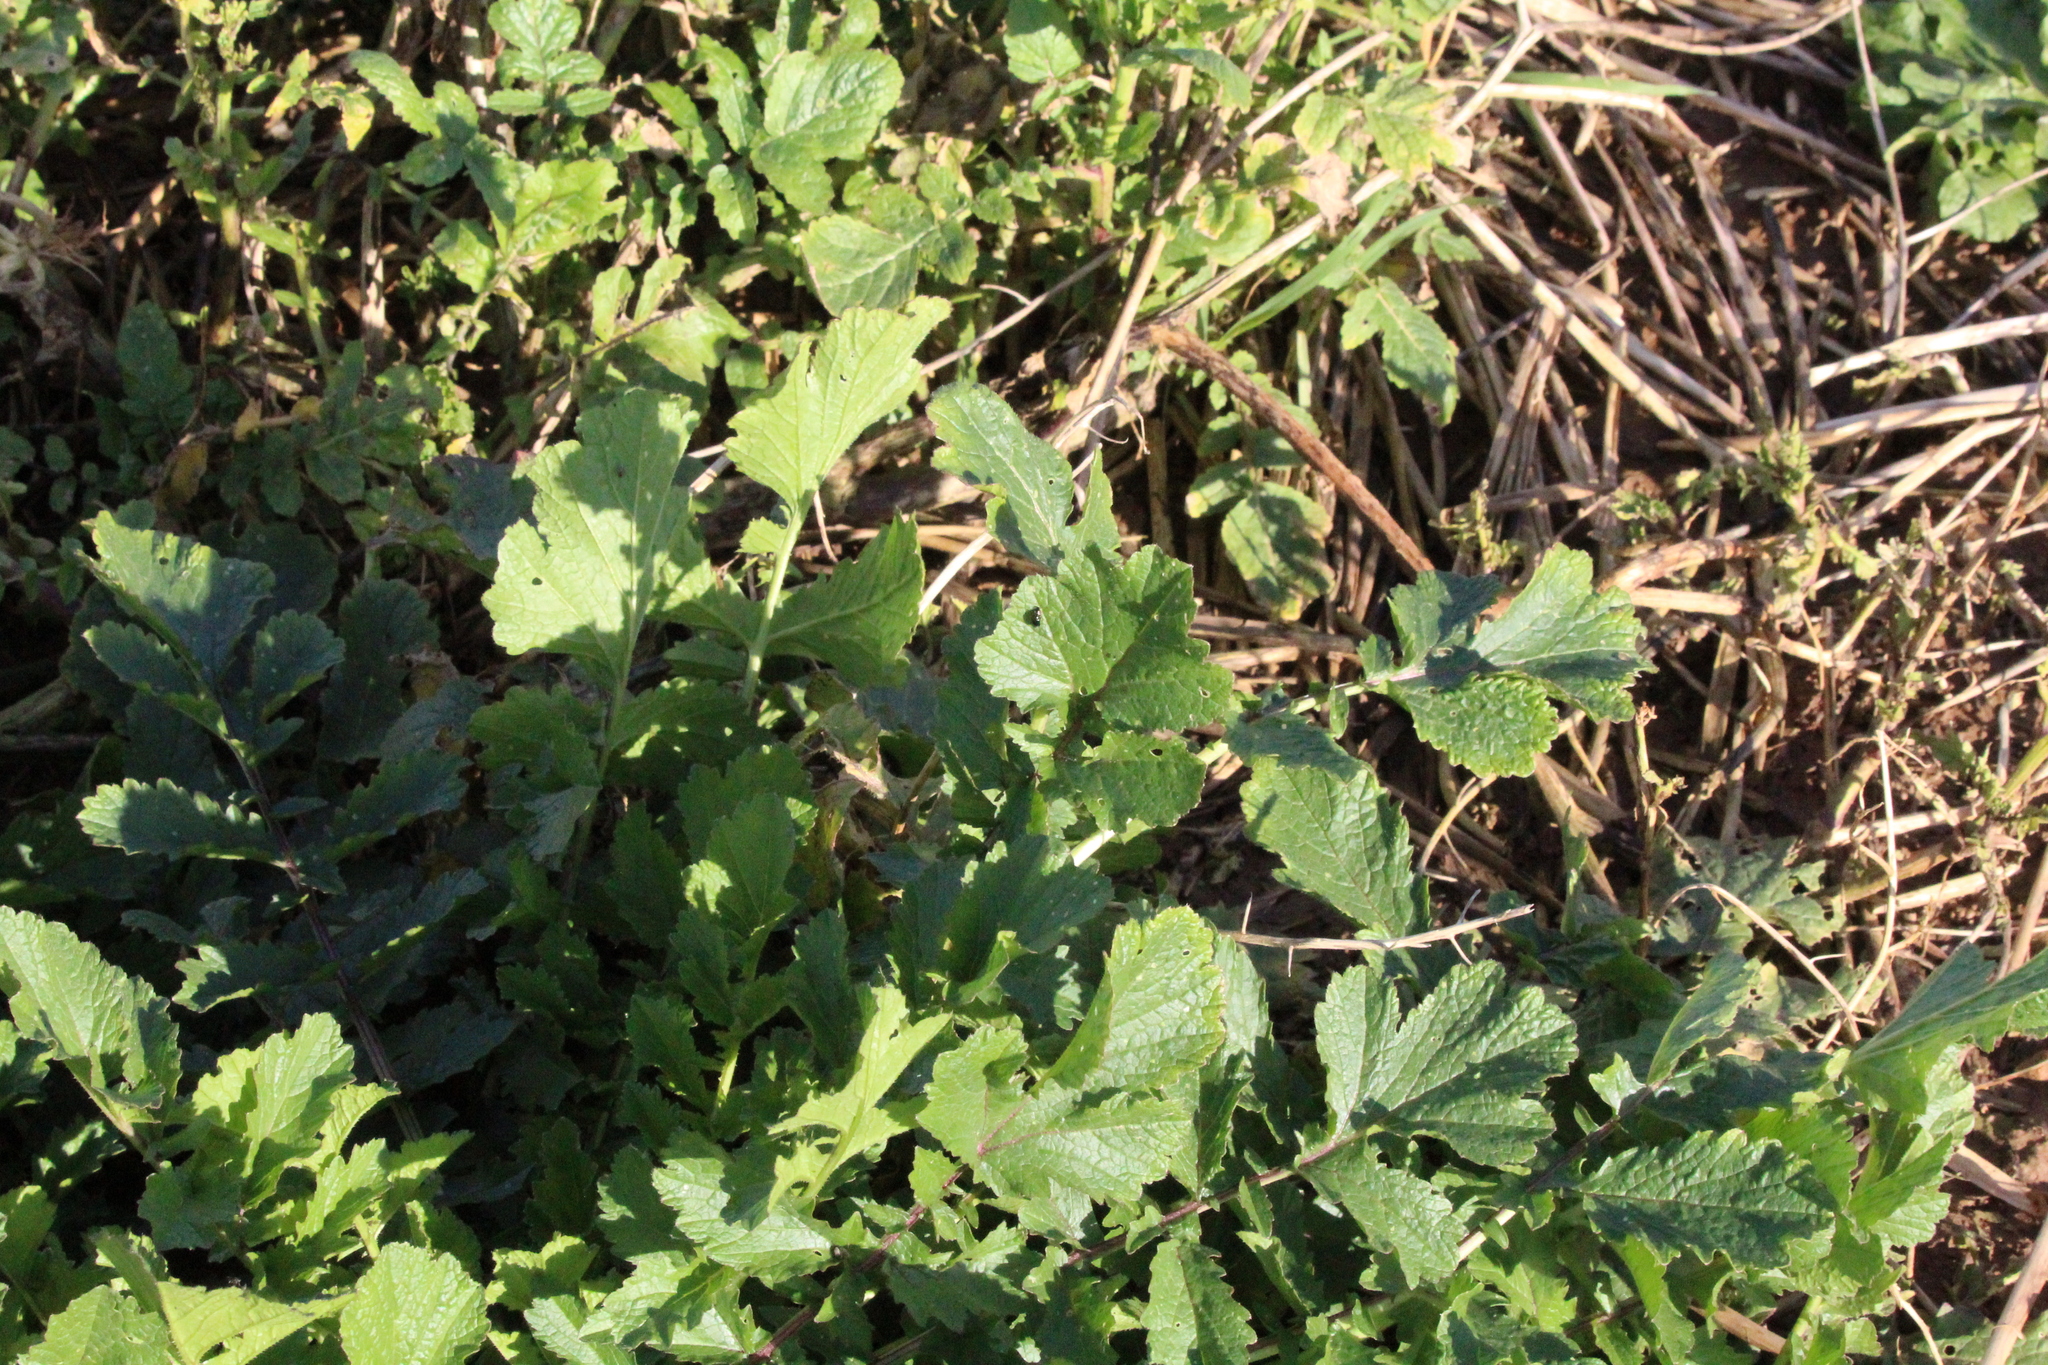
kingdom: Animalia
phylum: Arthropoda
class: Insecta
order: Coleoptera
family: Chrysomelidae
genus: Psylliodes
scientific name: Psylliodes chrysocephalus
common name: Cabbage-stem flea beetle
